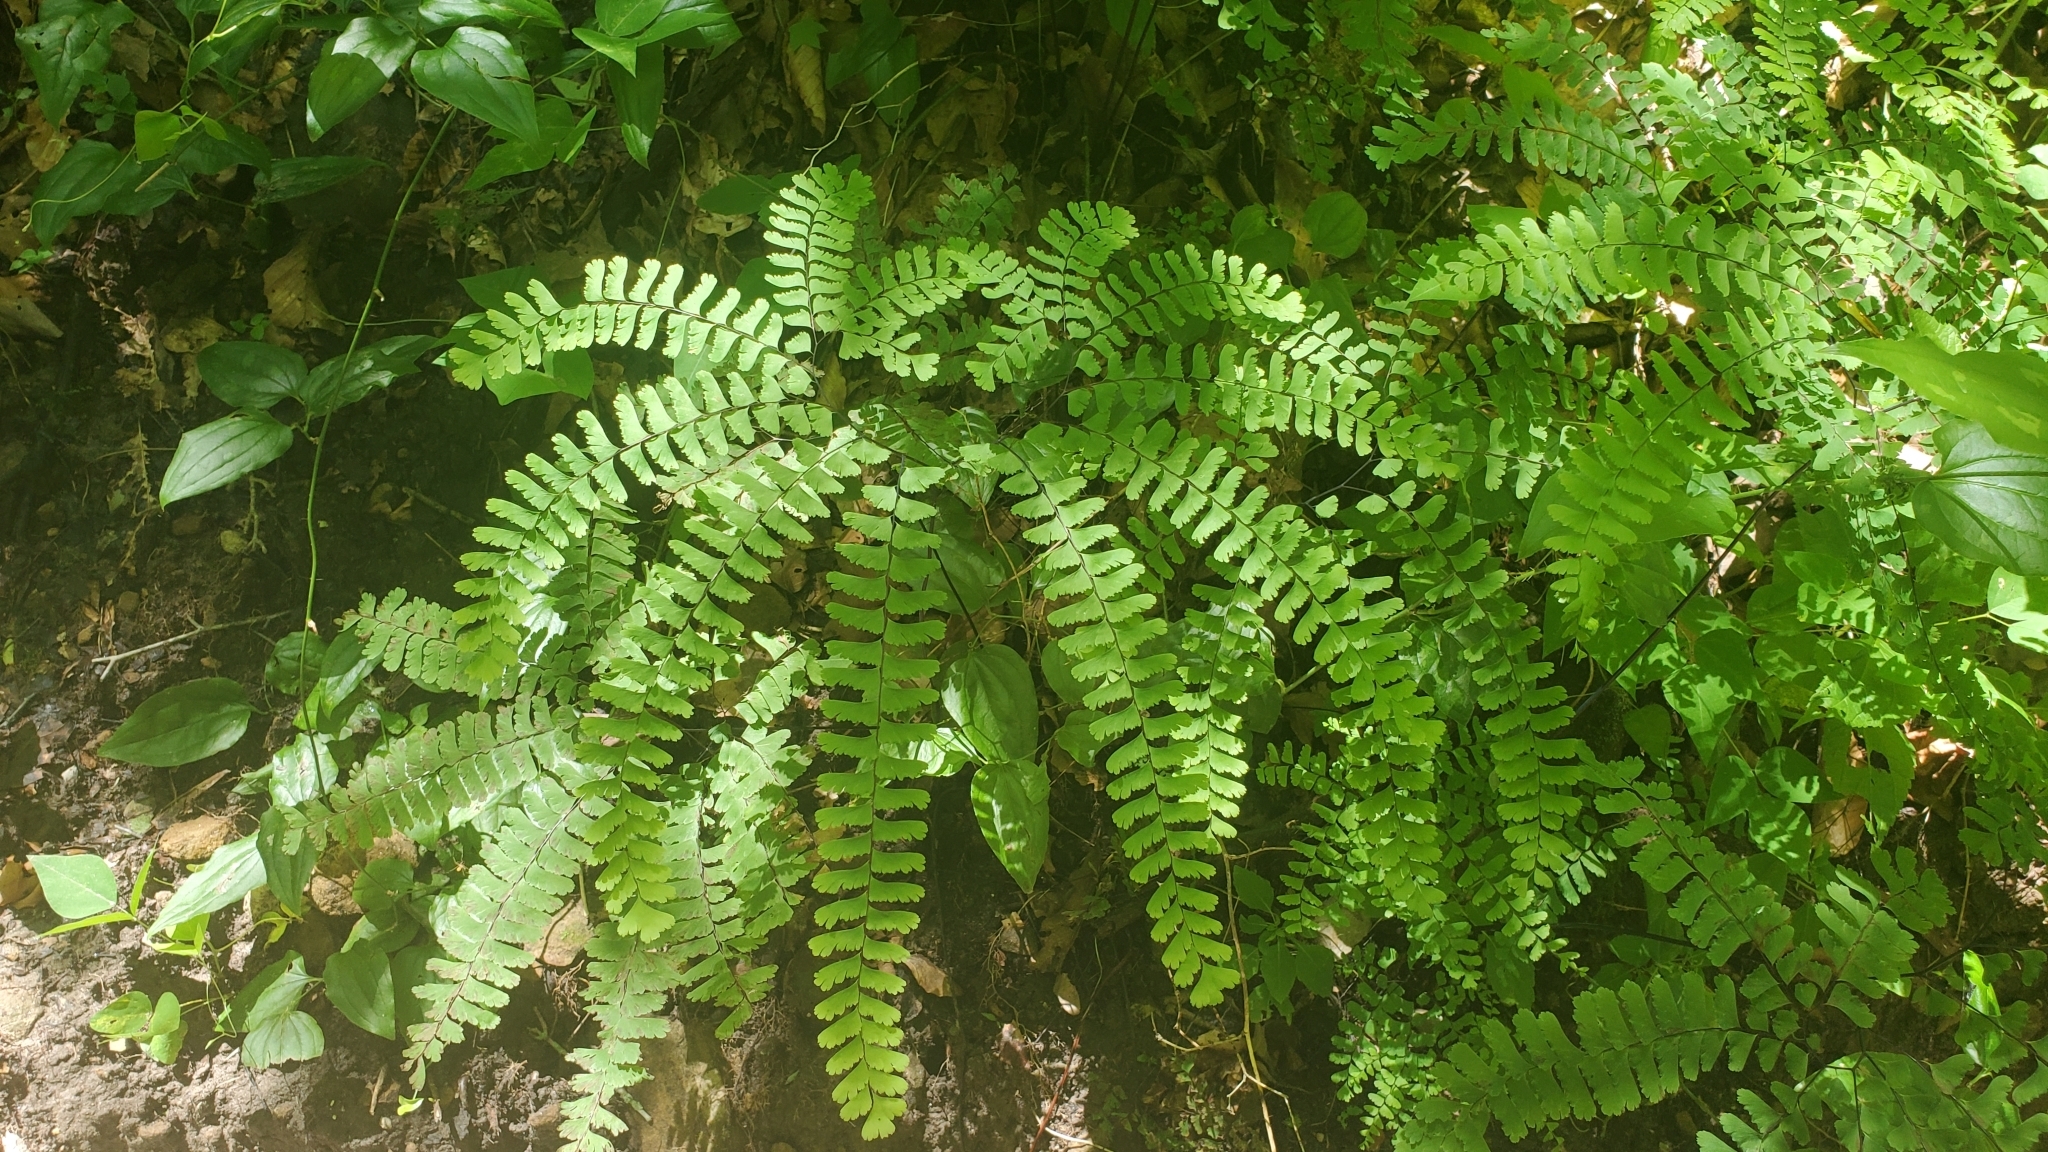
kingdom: Plantae
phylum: Tracheophyta
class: Polypodiopsida
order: Polypodiales
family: Pteridaceae
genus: Adiantum
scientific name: Adiantum pedatum
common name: Five-finger fern
